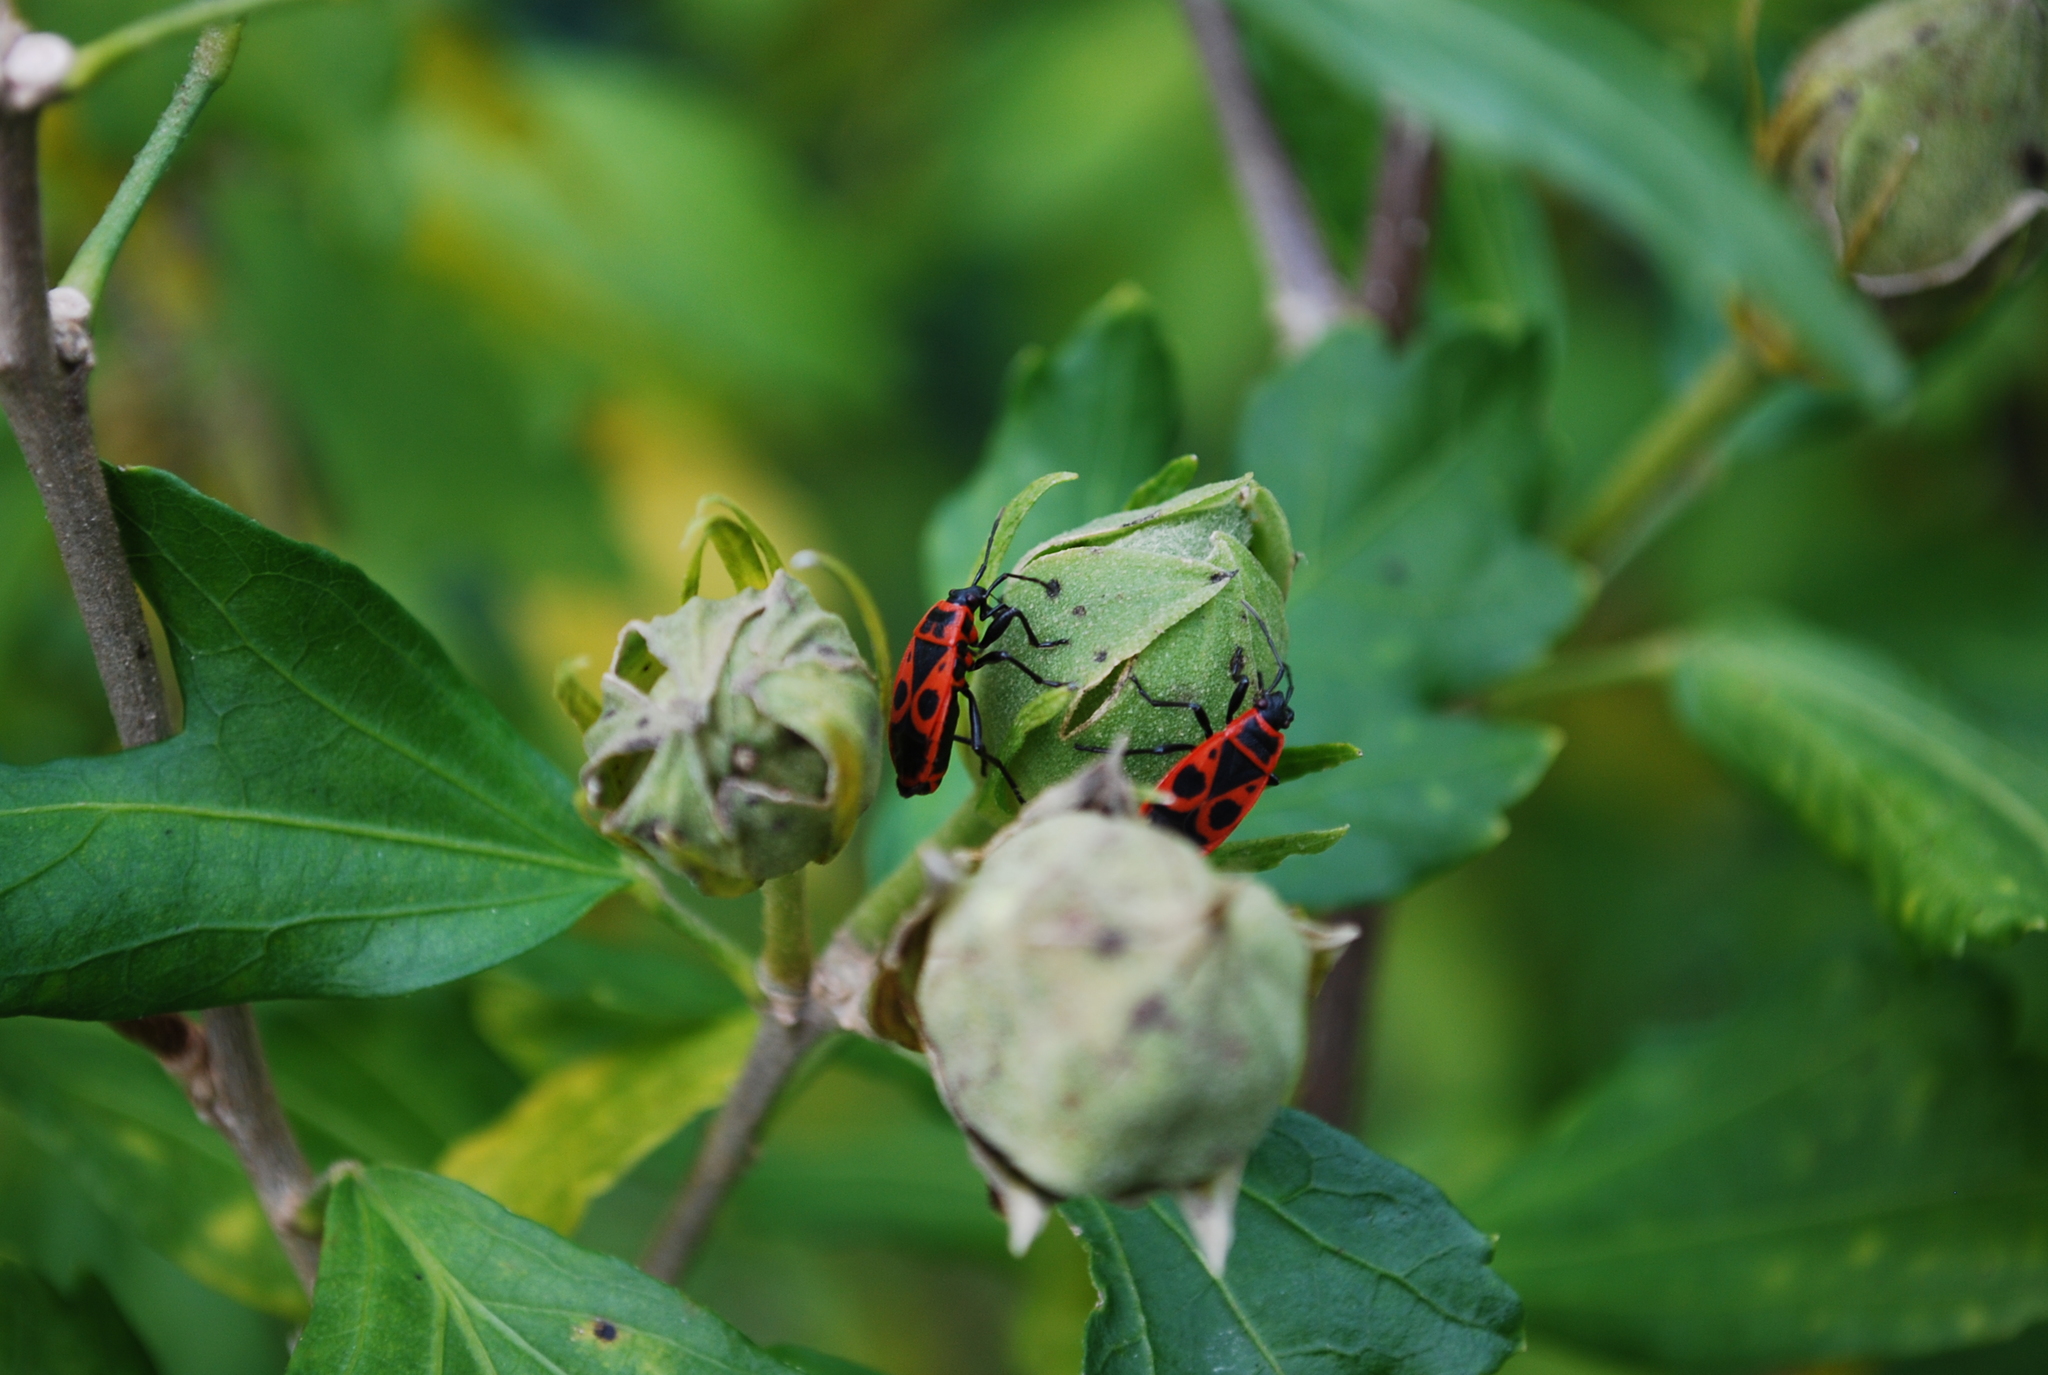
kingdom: Animalia
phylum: Arthropoda
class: Insecta
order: Hemiptera
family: Pyrrhocoridae
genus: Pyrrhocoris
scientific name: Pyrrhocoris apterus
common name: Firebug
